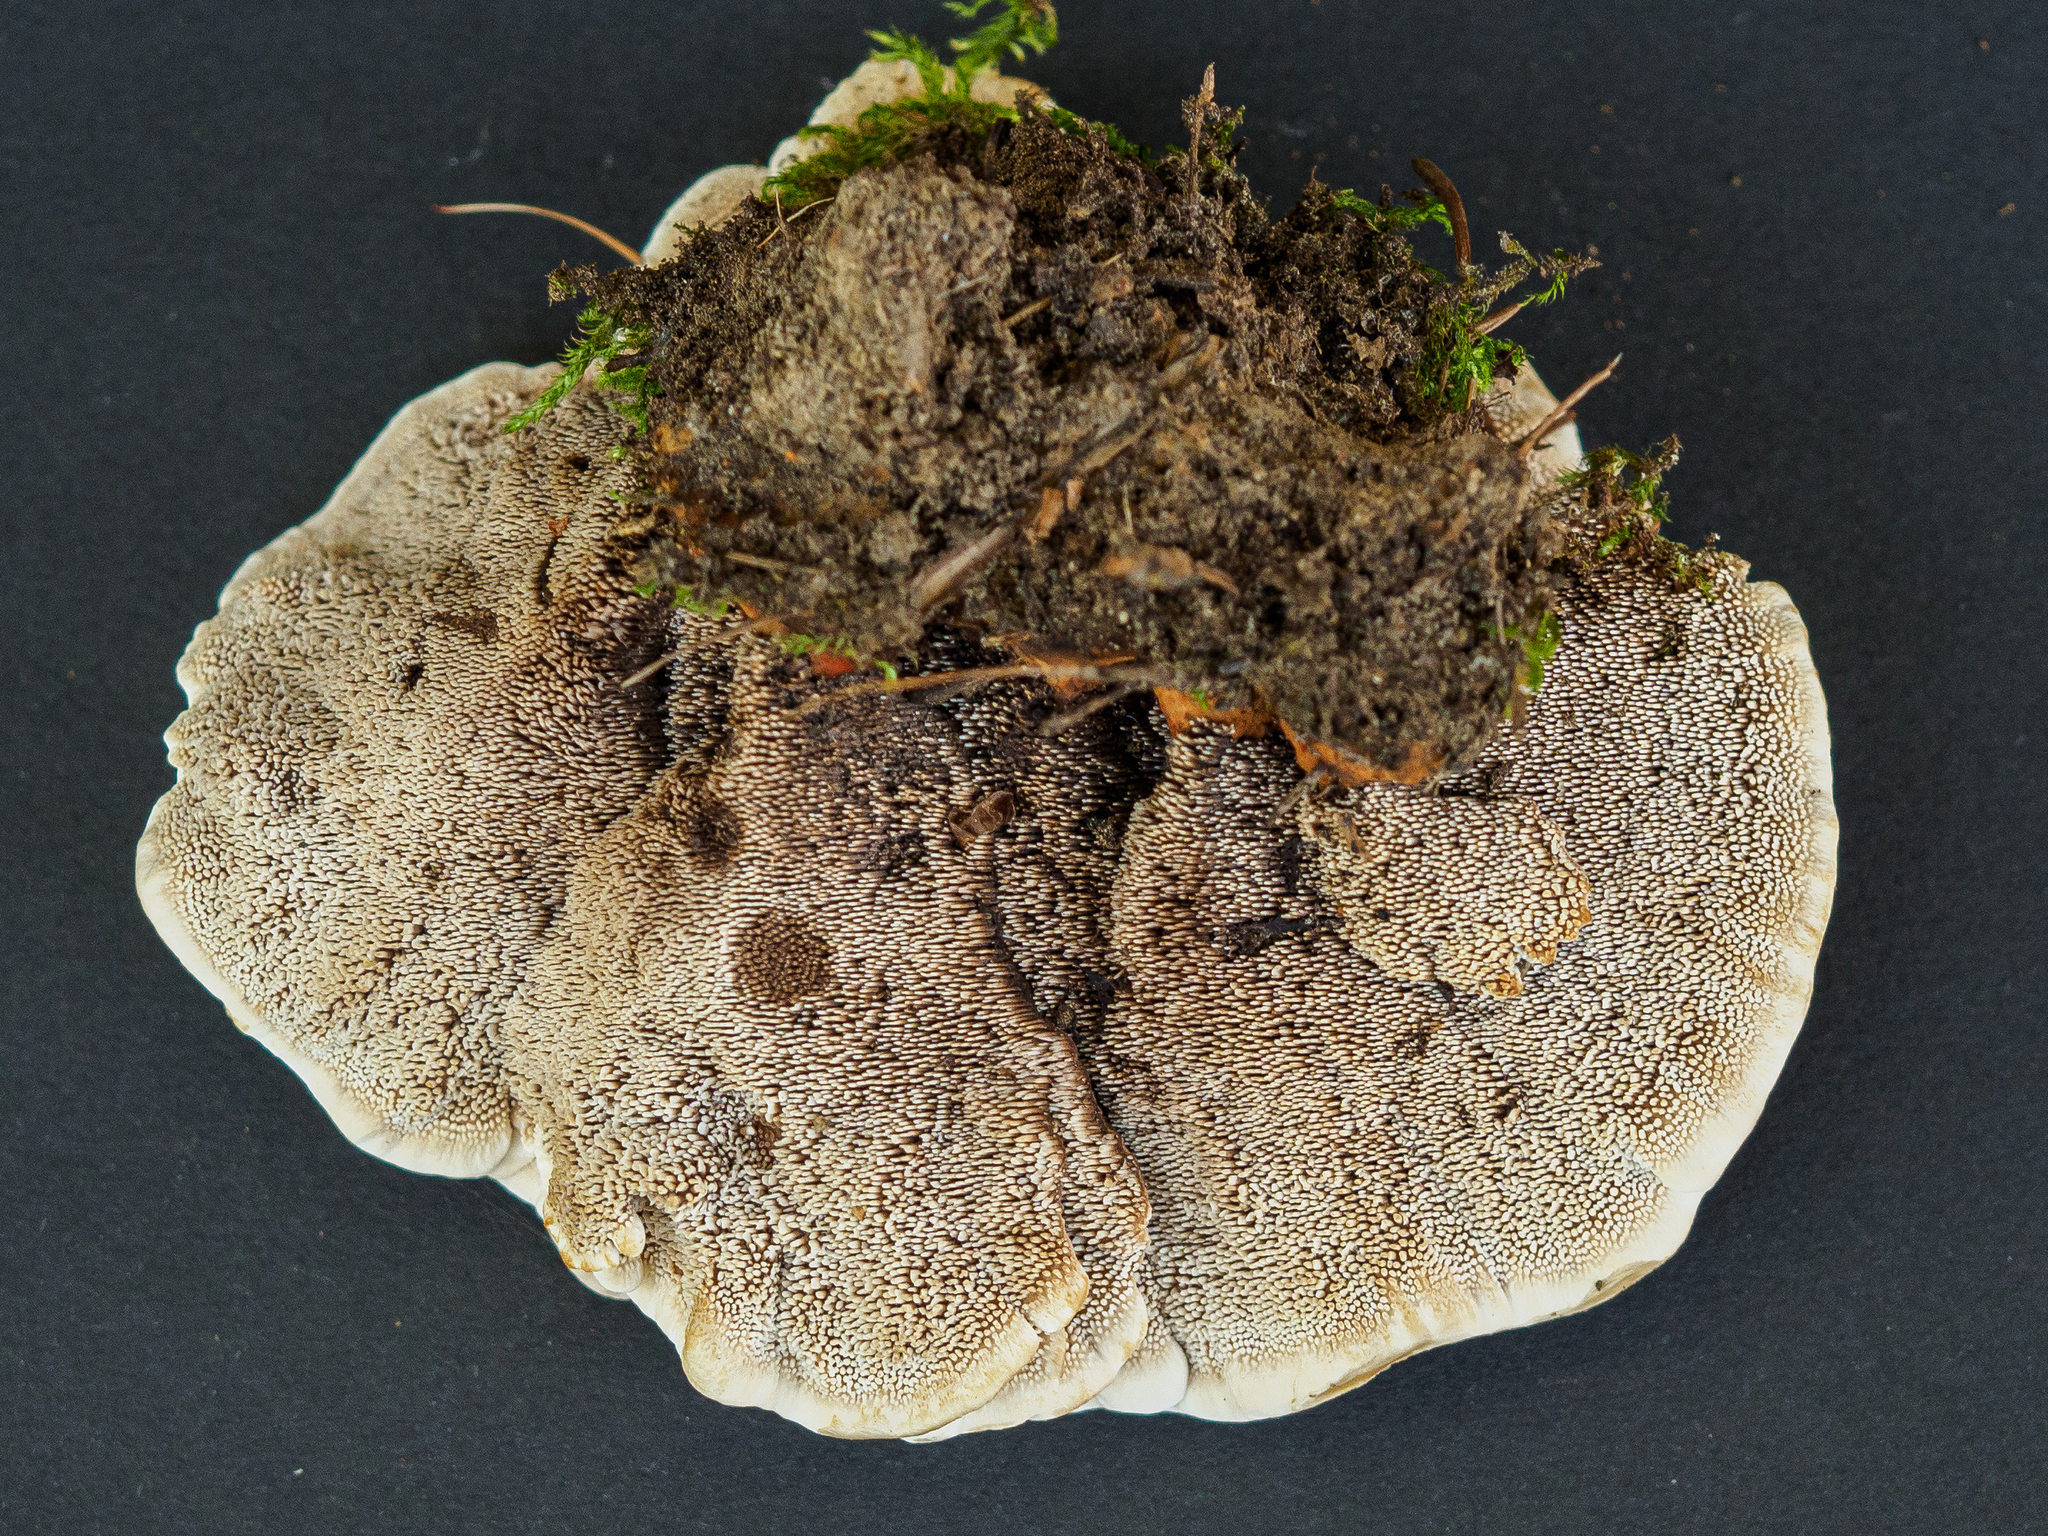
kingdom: Fungi
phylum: Basidiomycota
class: Agaricomycetes
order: Thelephorales
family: Bankeraceae
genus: Hydnellum
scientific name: Hydnellum aurantiacum
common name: Orange tooth
